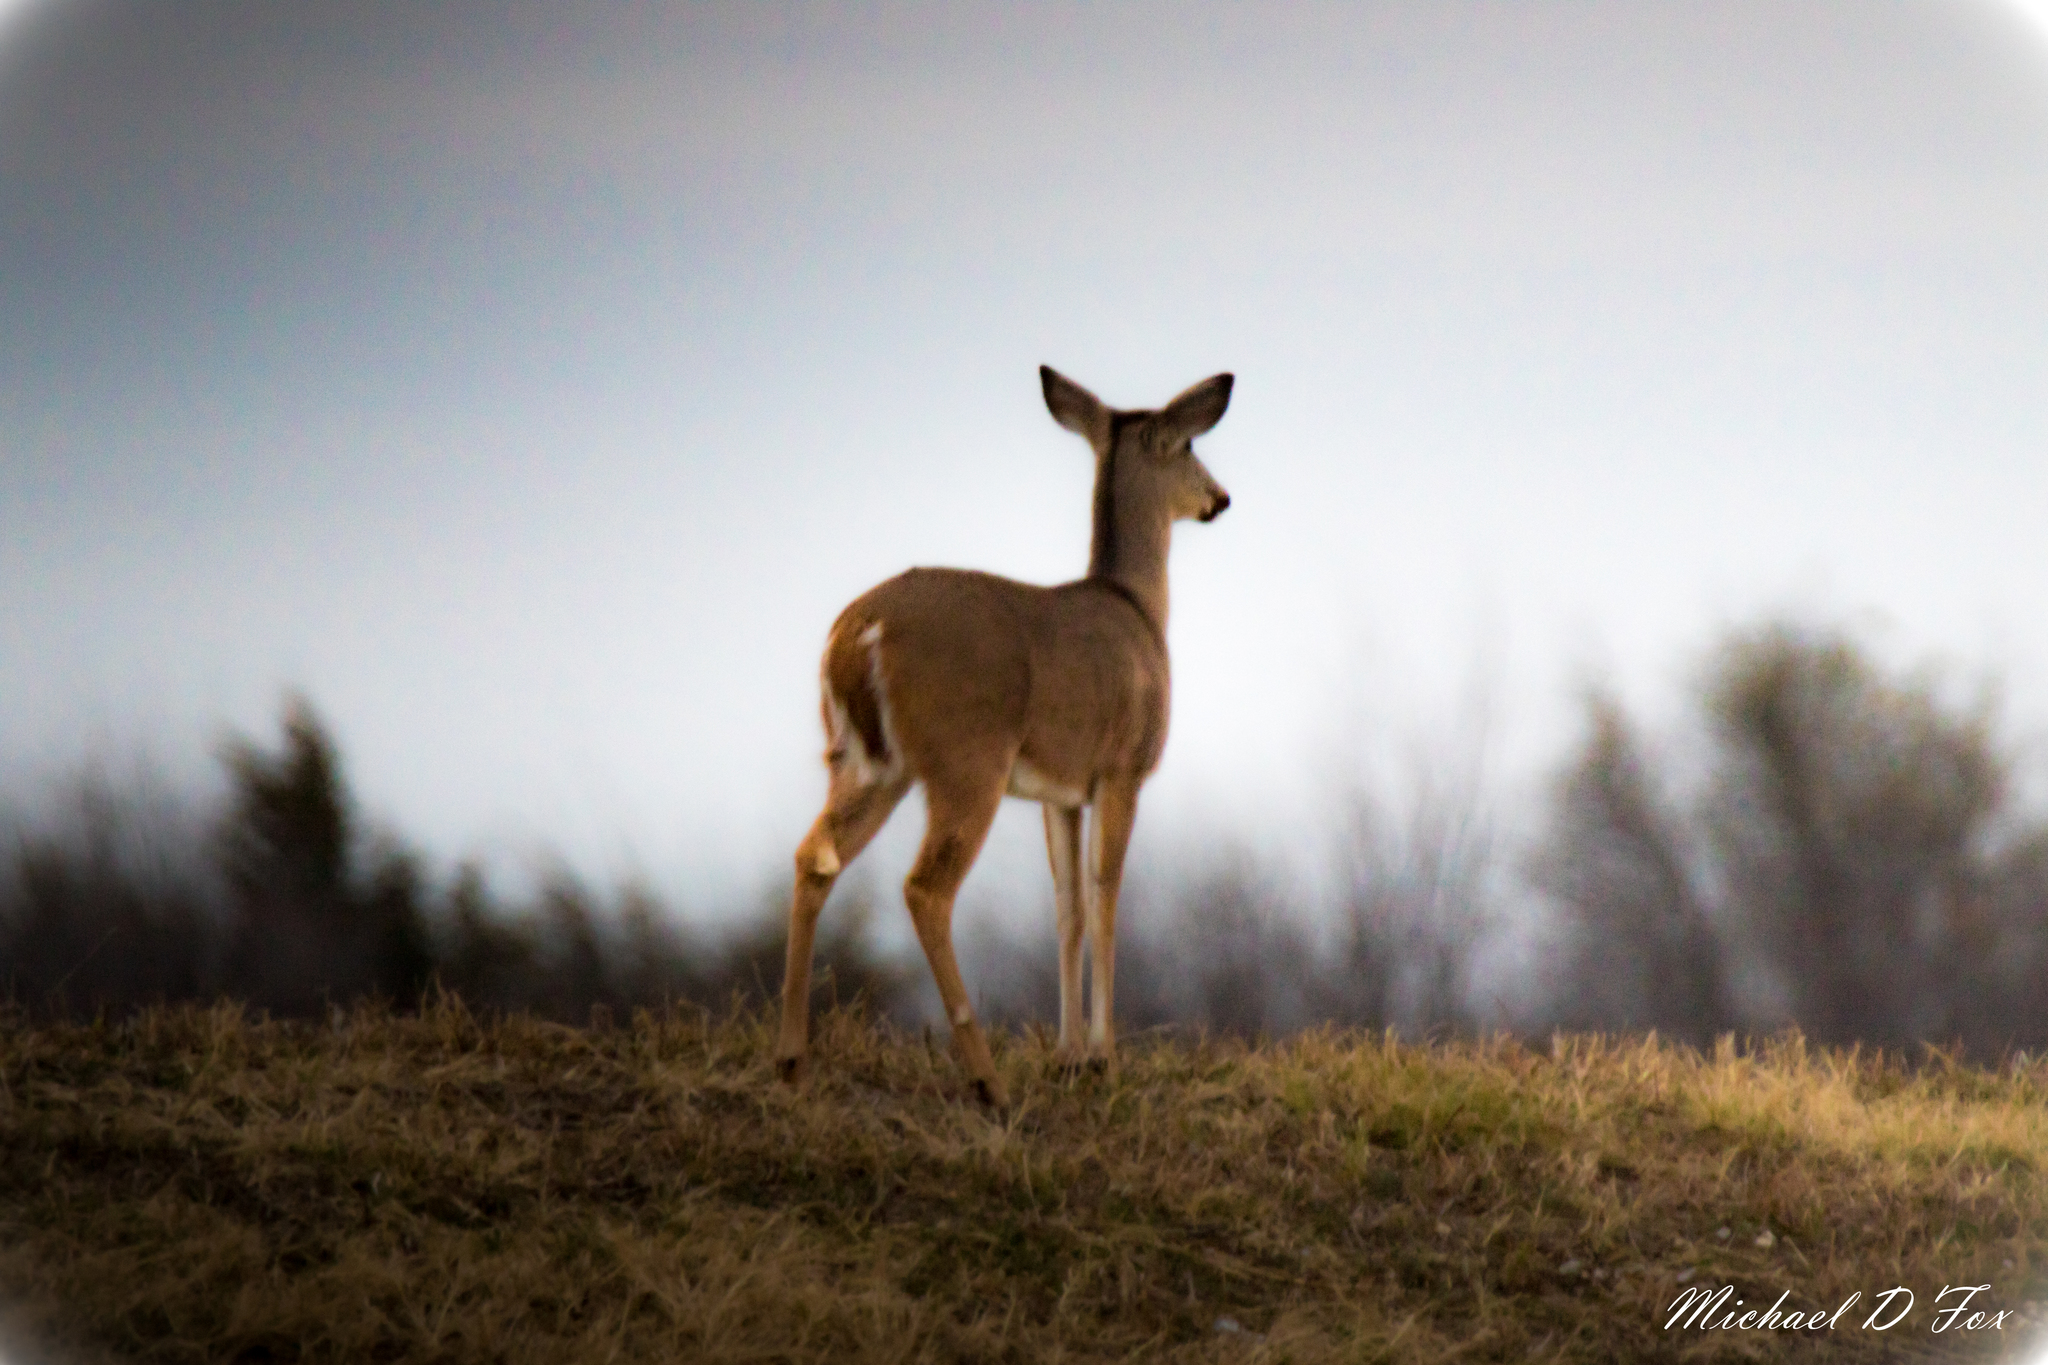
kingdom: Animalia
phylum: Chordata
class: Mammalia
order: Artiodactyla
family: Cervidae
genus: Odocoileus
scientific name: Odocoileus virginianus
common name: White-tailed deer
